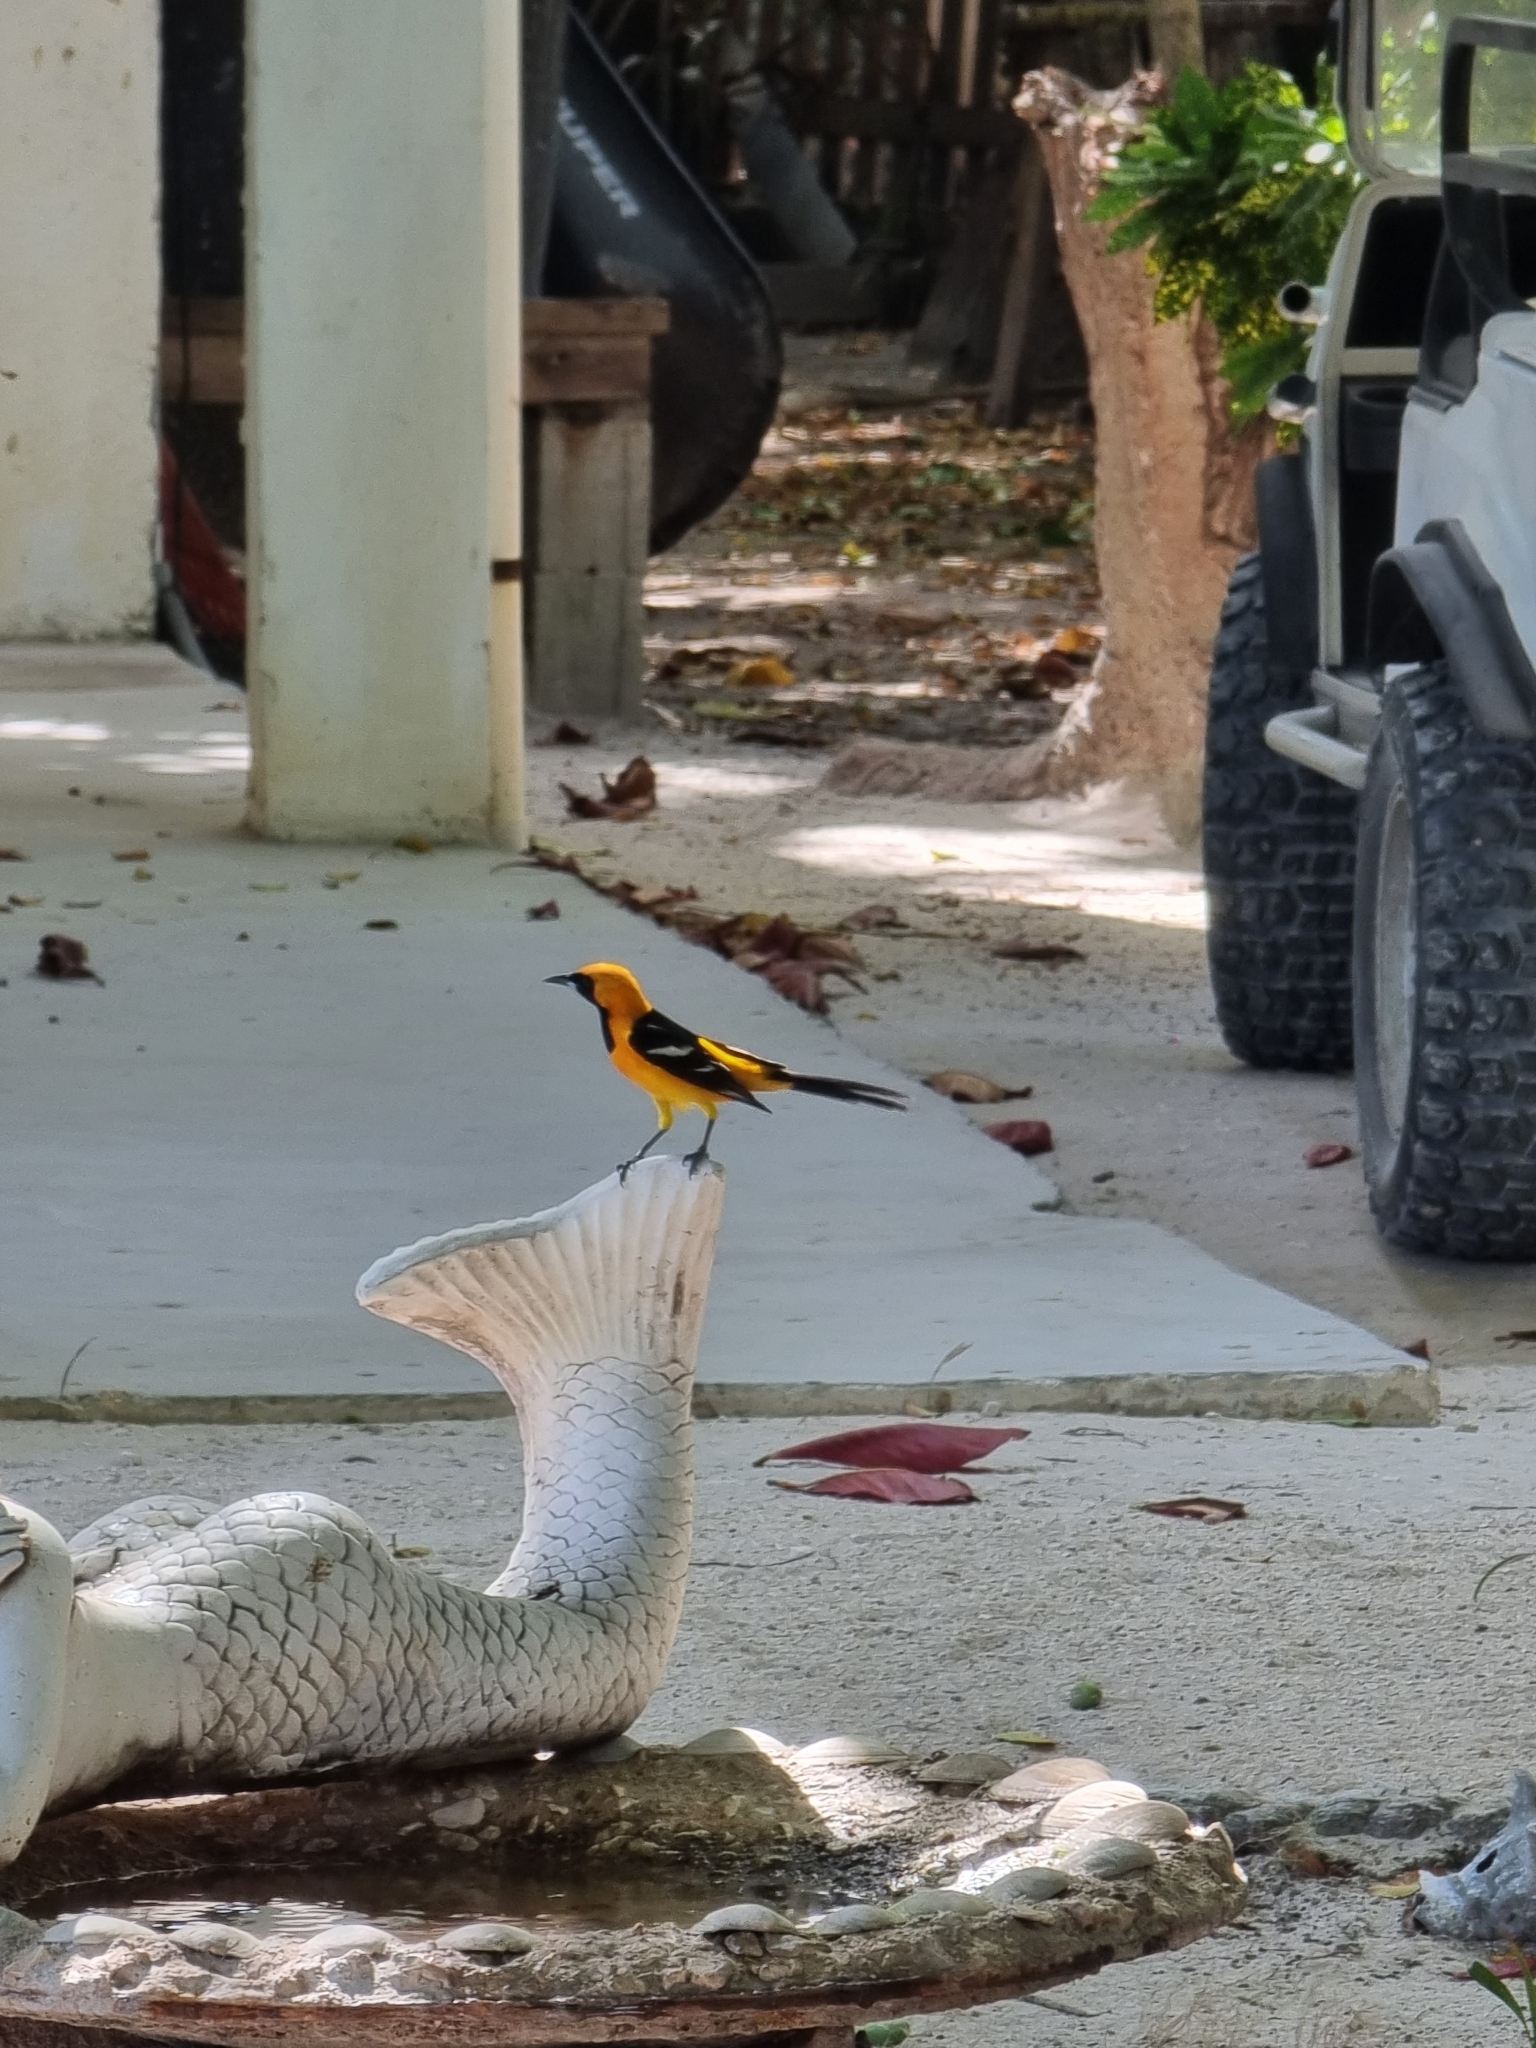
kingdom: Animalia
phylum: Chordata
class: Aves
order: Passeriformes
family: Icteridae
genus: Icterus
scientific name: Icterus cucullatus
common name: Hooded oriole
